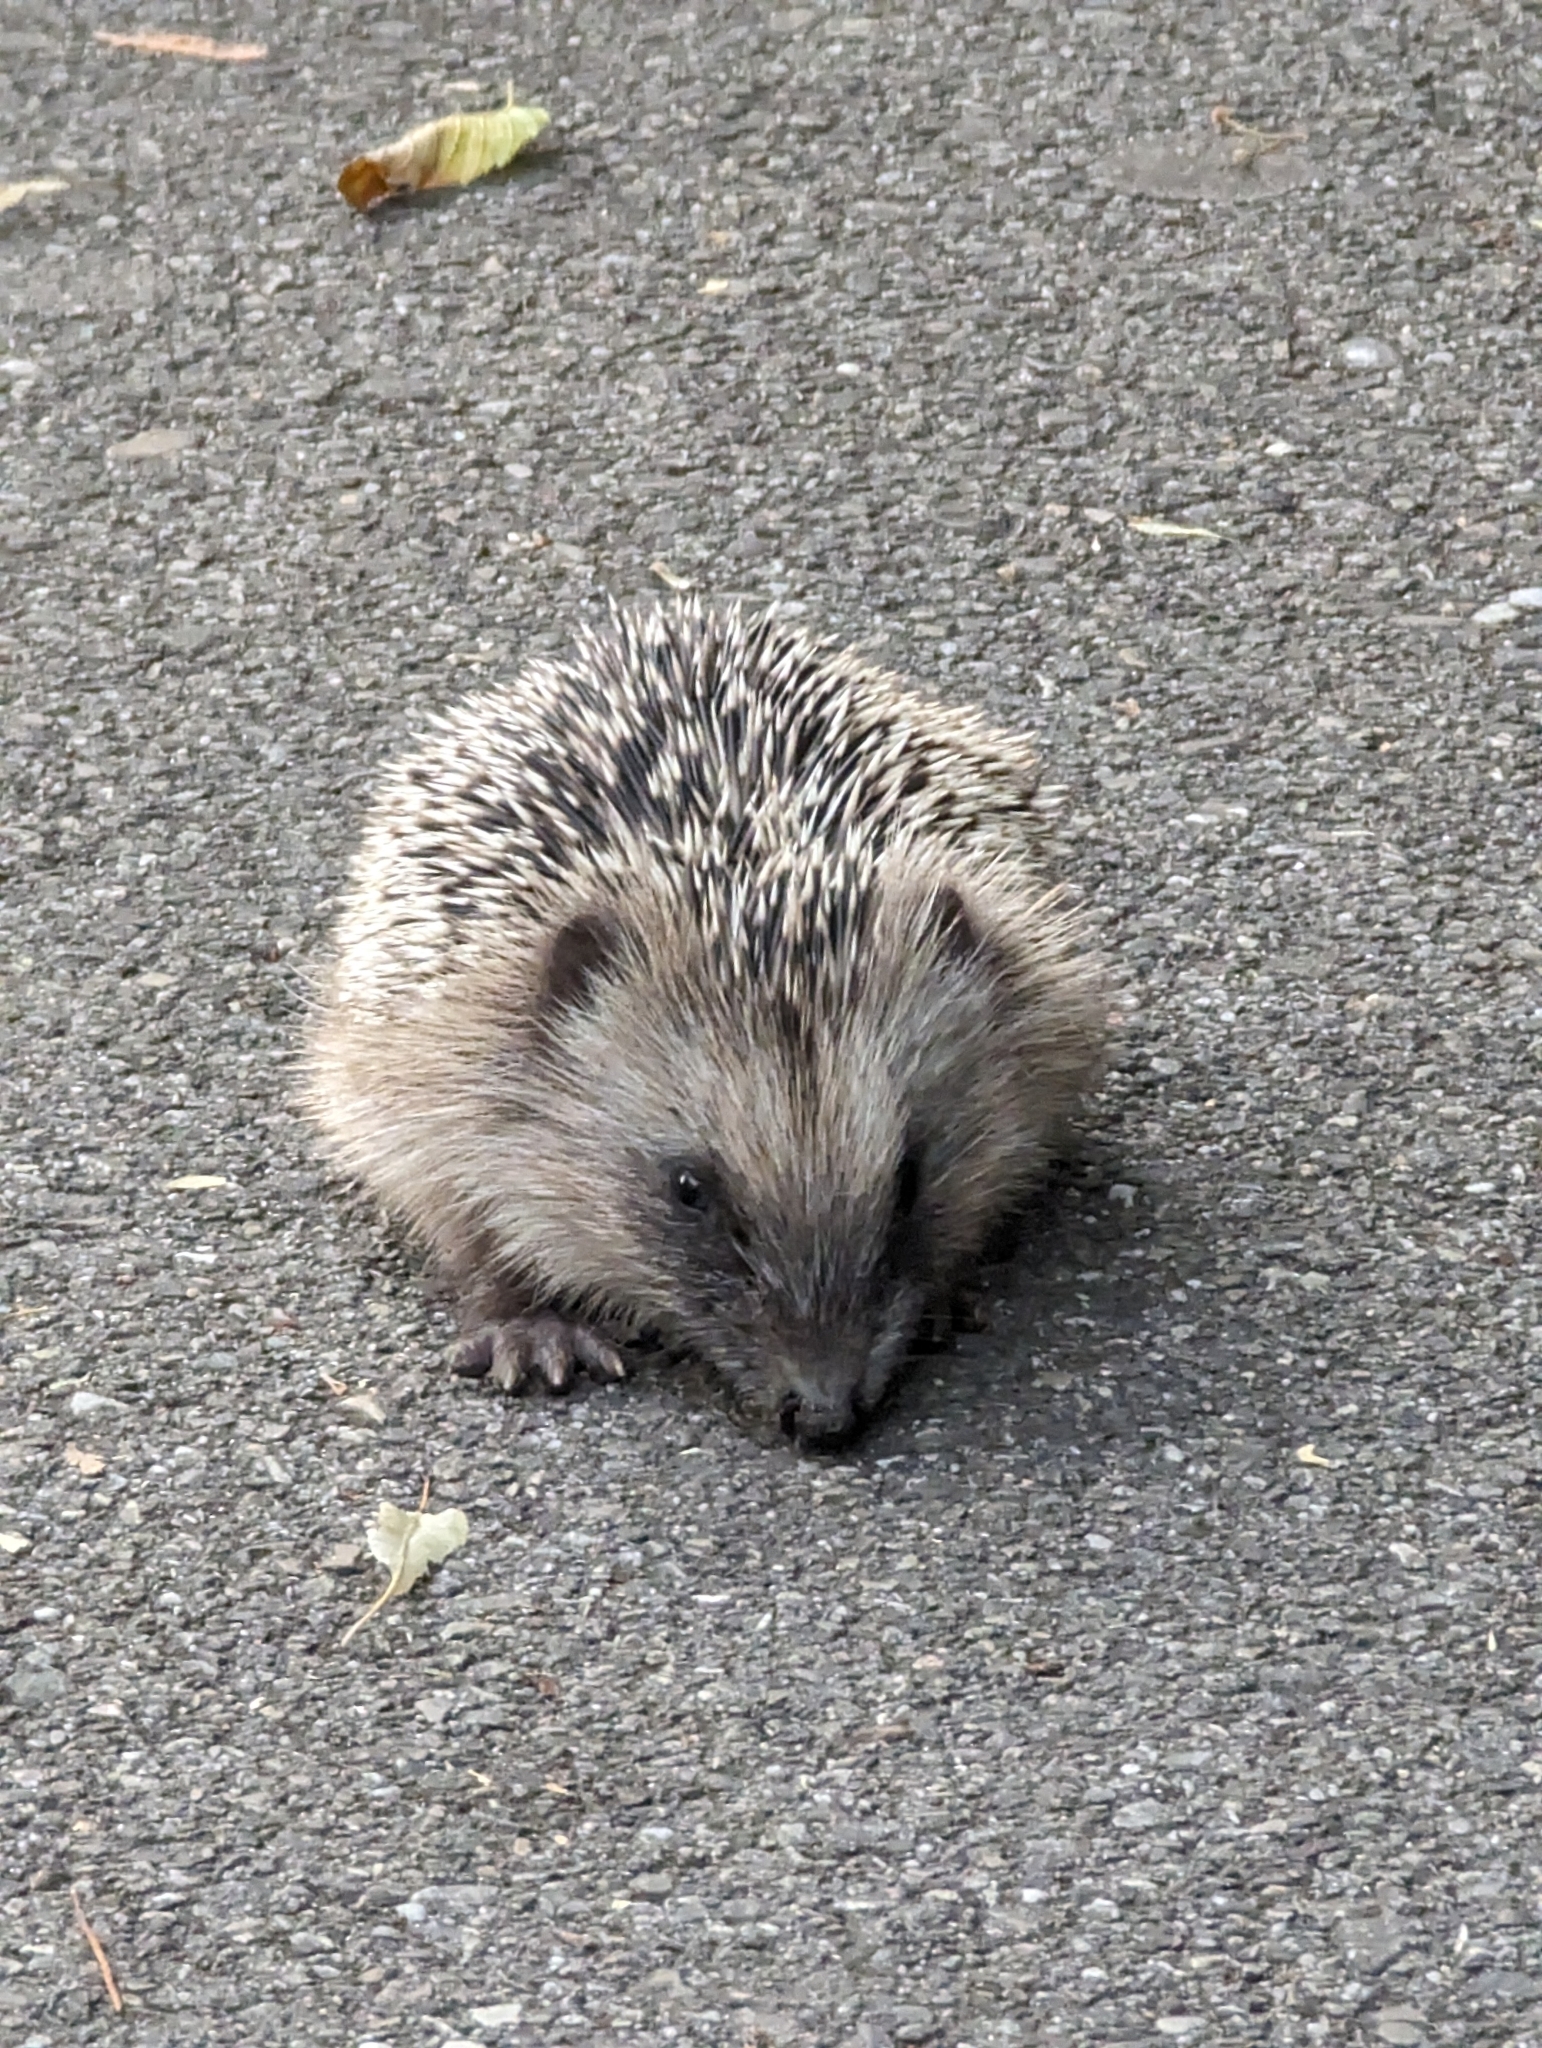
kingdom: Animalia
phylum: Chordata
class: Mammalia
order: Erinaceomorpha
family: Erinaceidae
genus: Erinaceus
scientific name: Erinaceus europaeus
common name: West european hedgehog
